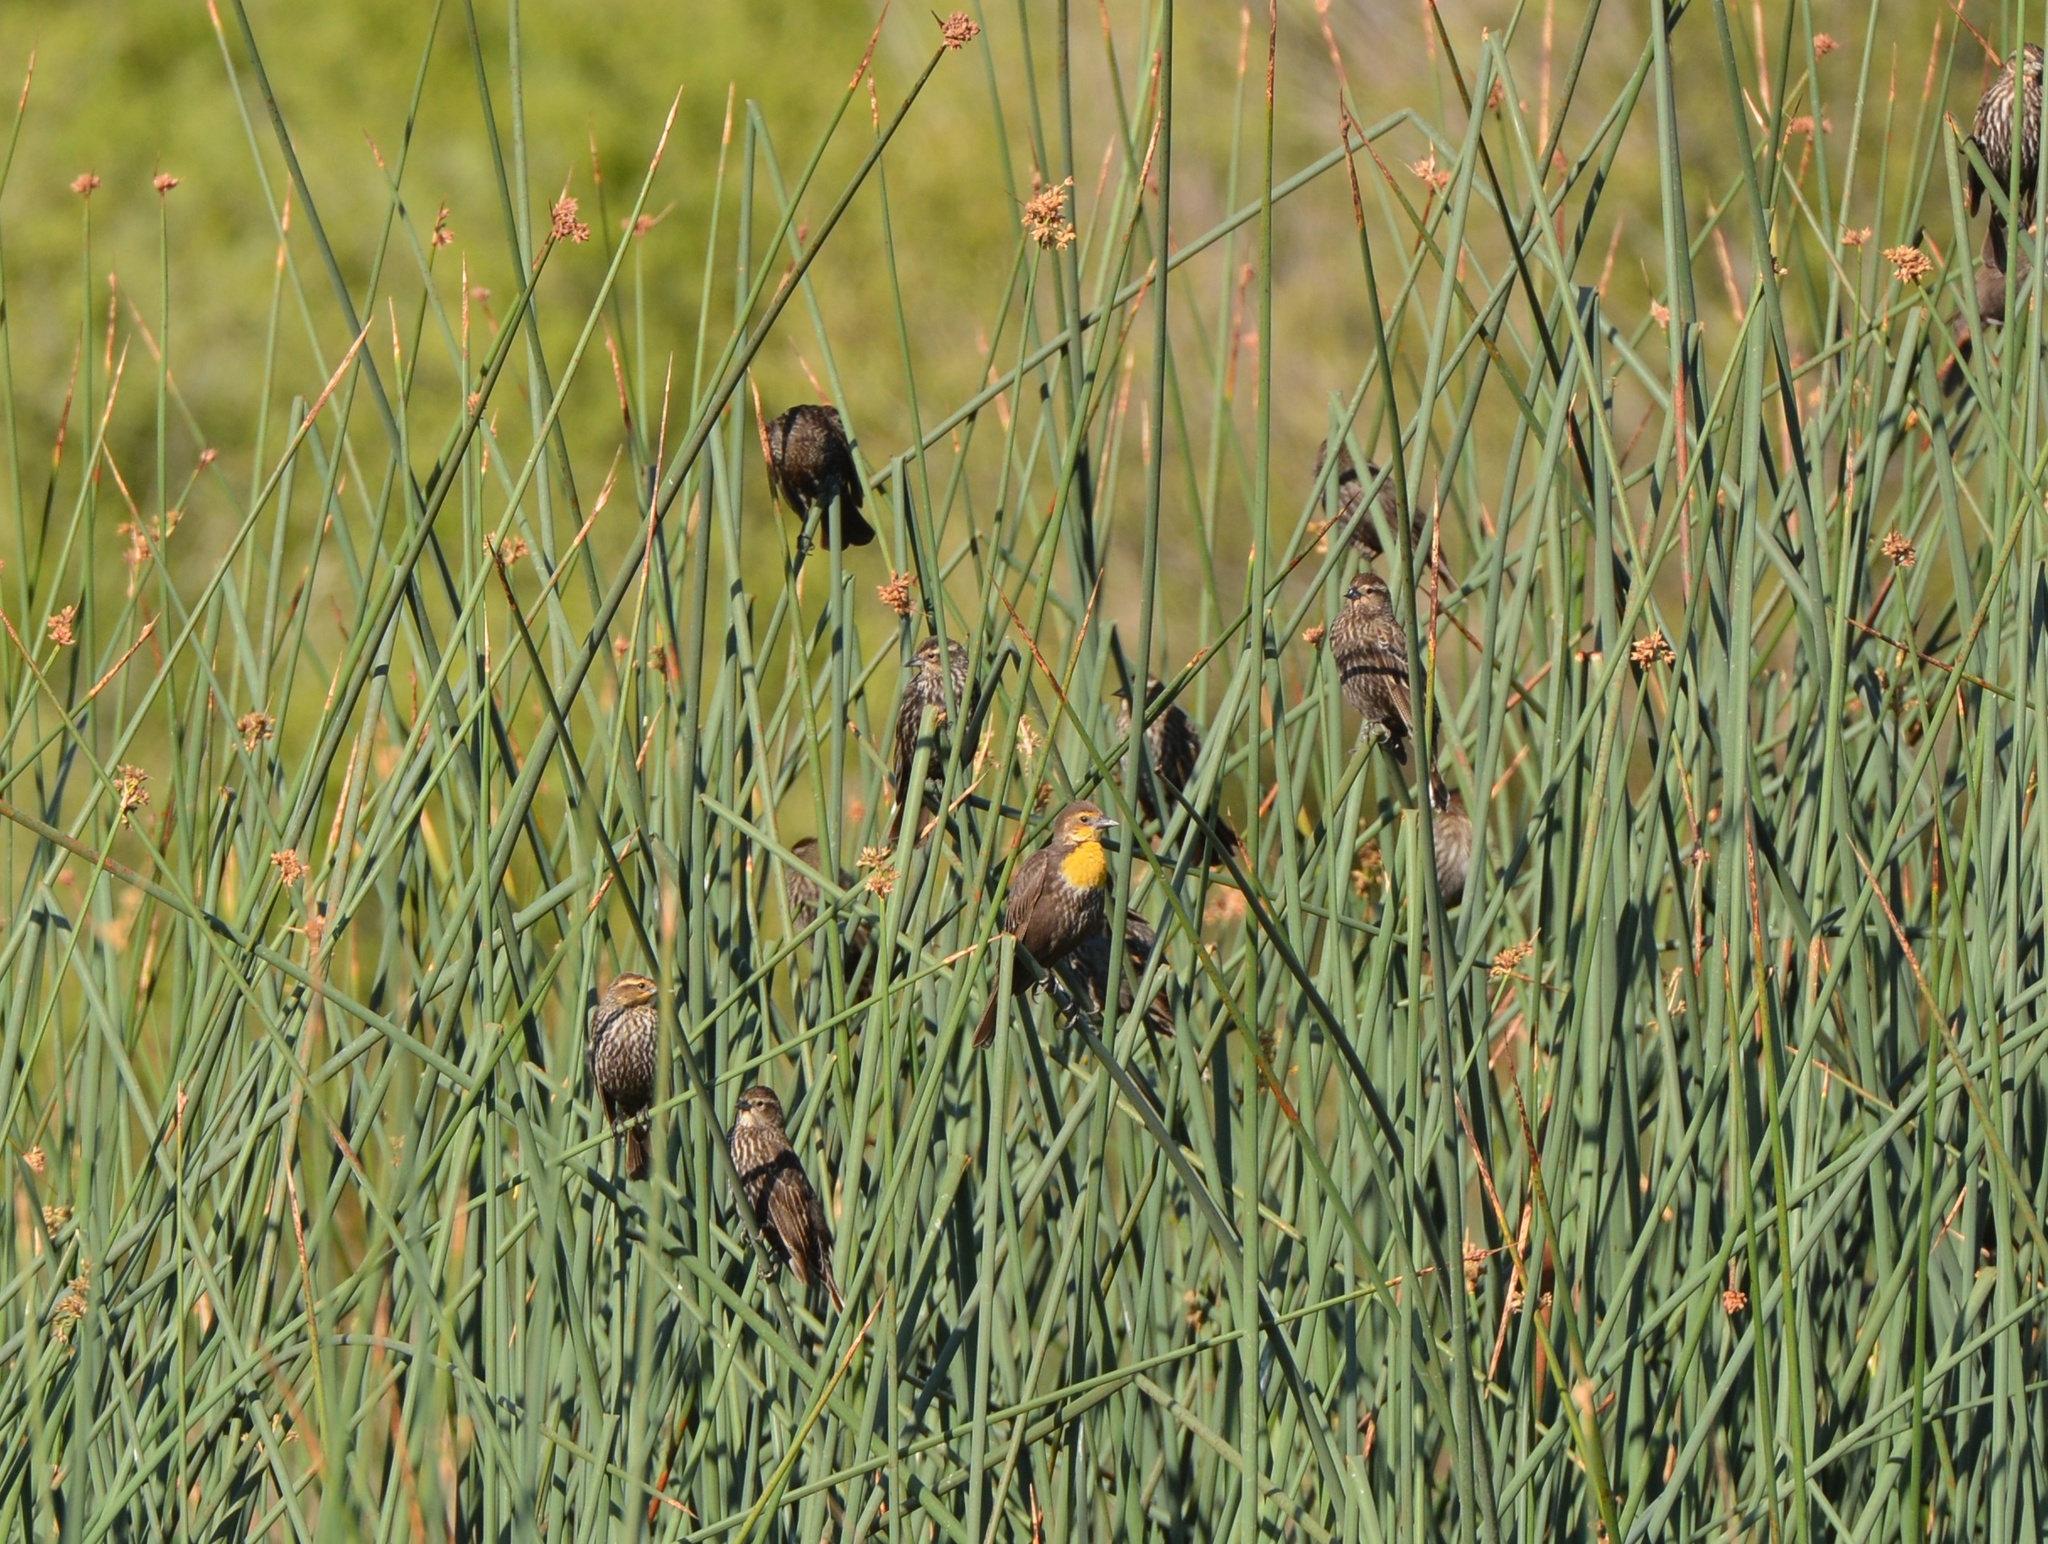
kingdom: Animalia
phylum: Chordata
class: Aves
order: Passeriformes
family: Icteridae
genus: Xanthocephalus
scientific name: Xanthocephalus xanthocephalus
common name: Yellow-headed blackbird
